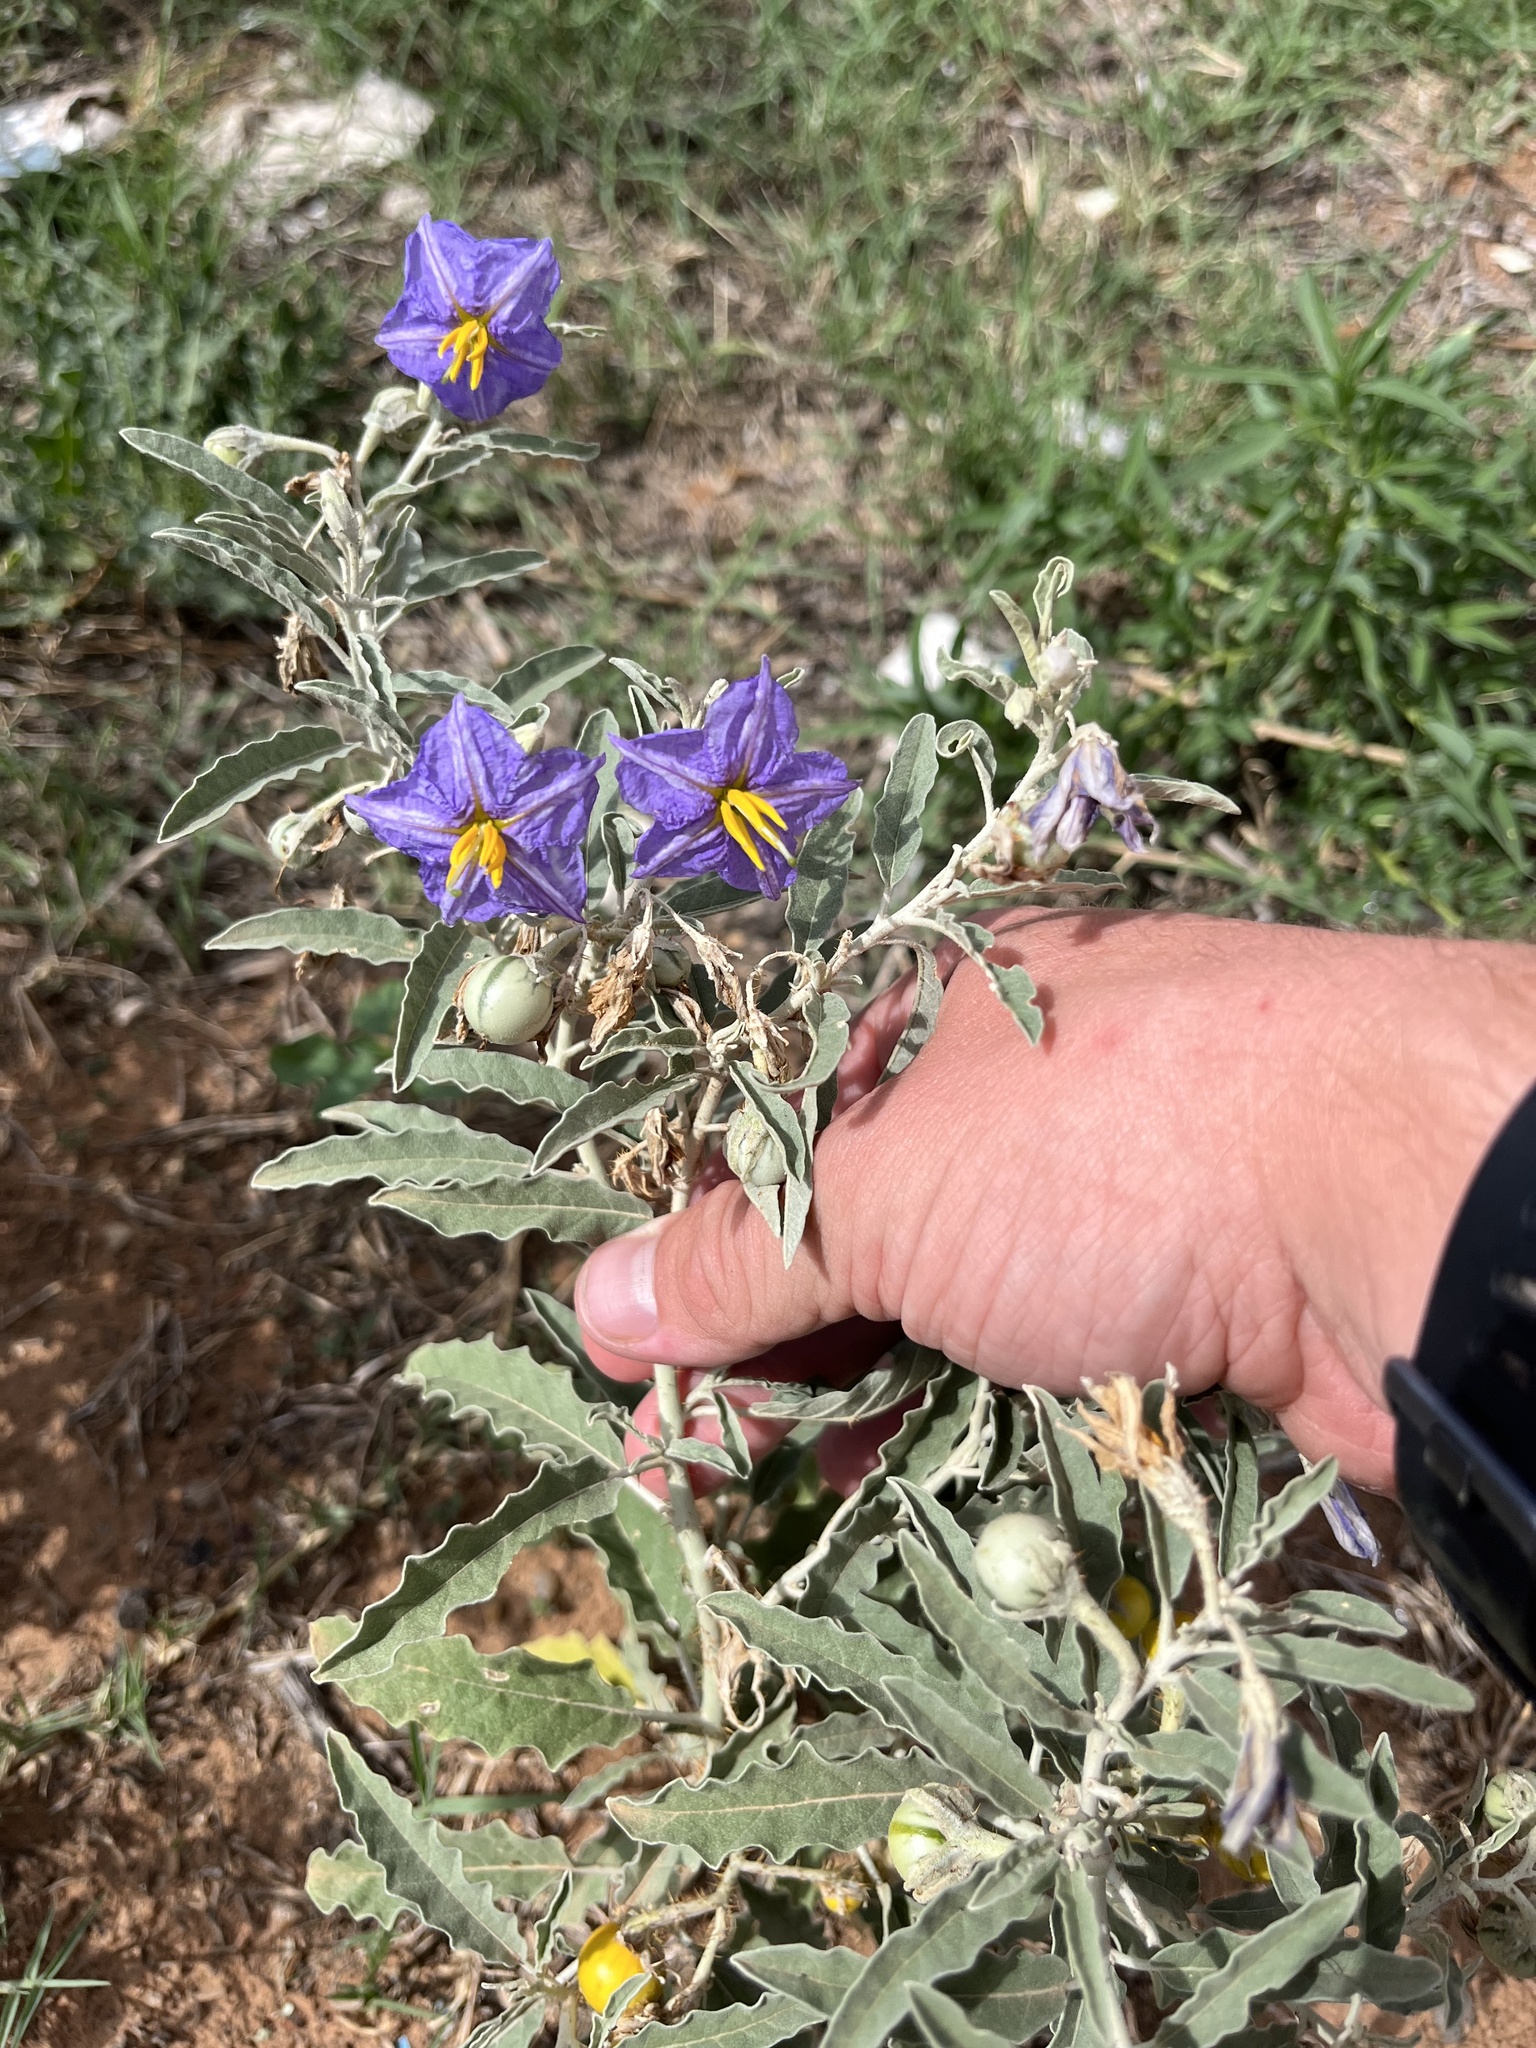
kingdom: Plantae
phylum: Tracheophyta
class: Magnoliopsida
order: Solanales
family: Solanaceae
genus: Solanum
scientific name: Solanum elaeagnifolium
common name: Silverleaf nightshade
